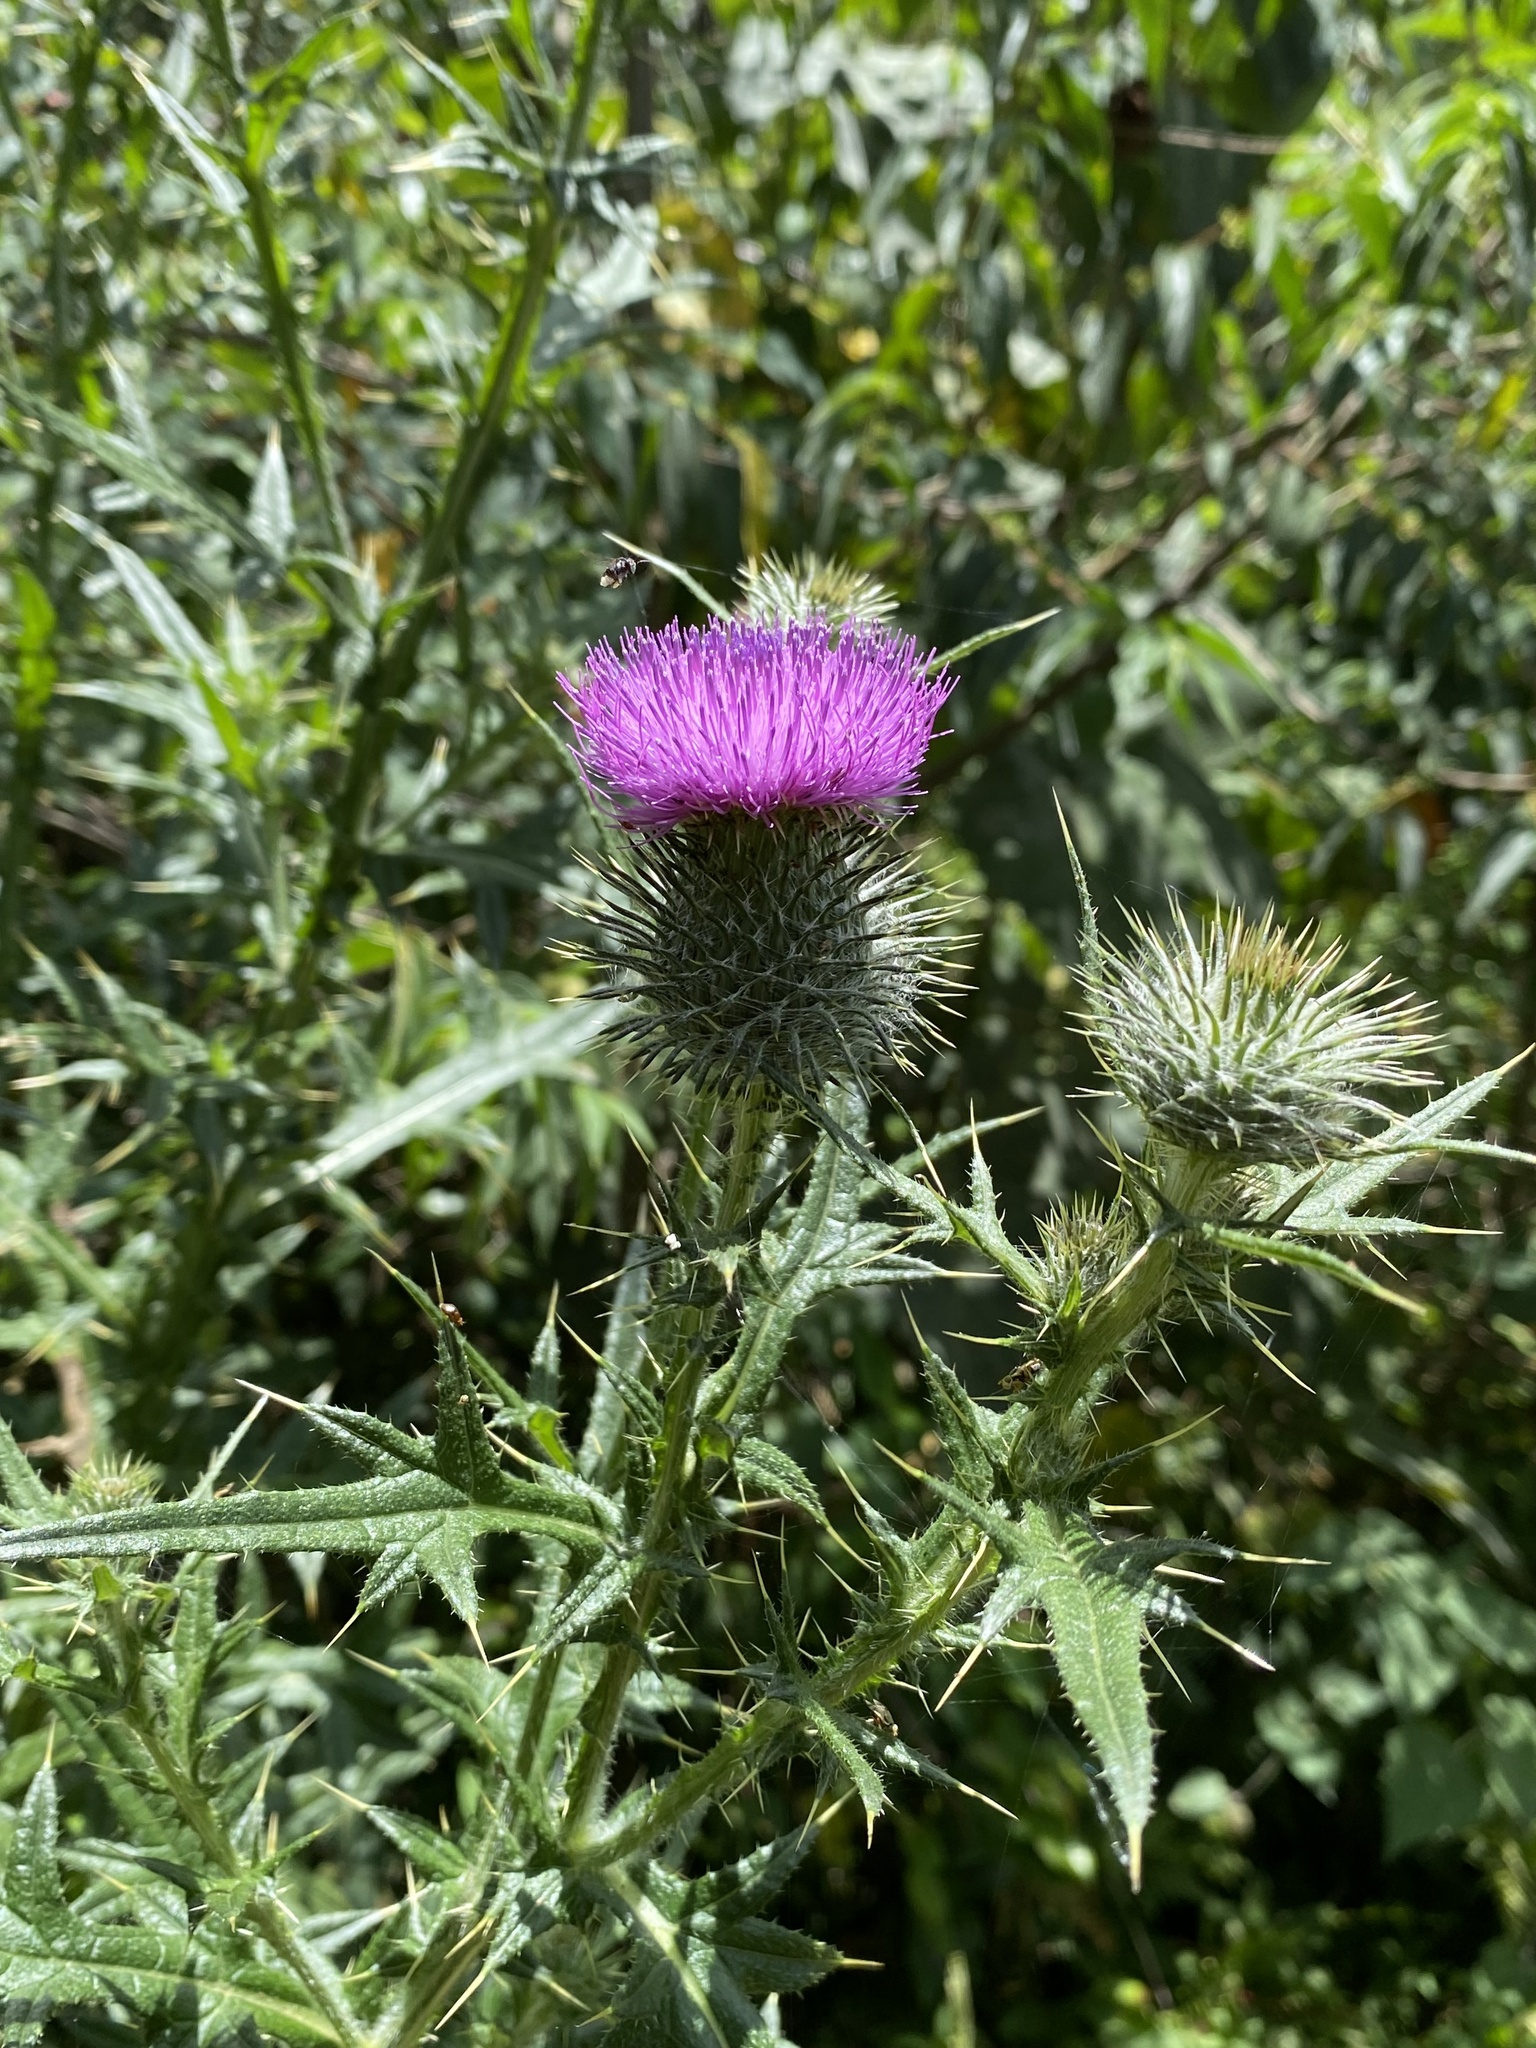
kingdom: Plantae
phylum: Tracheophyta
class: Magnoliopsida
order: Asterales
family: Asteraceae
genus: Cirsium
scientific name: Cirsium vulgare
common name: Bull thistle
